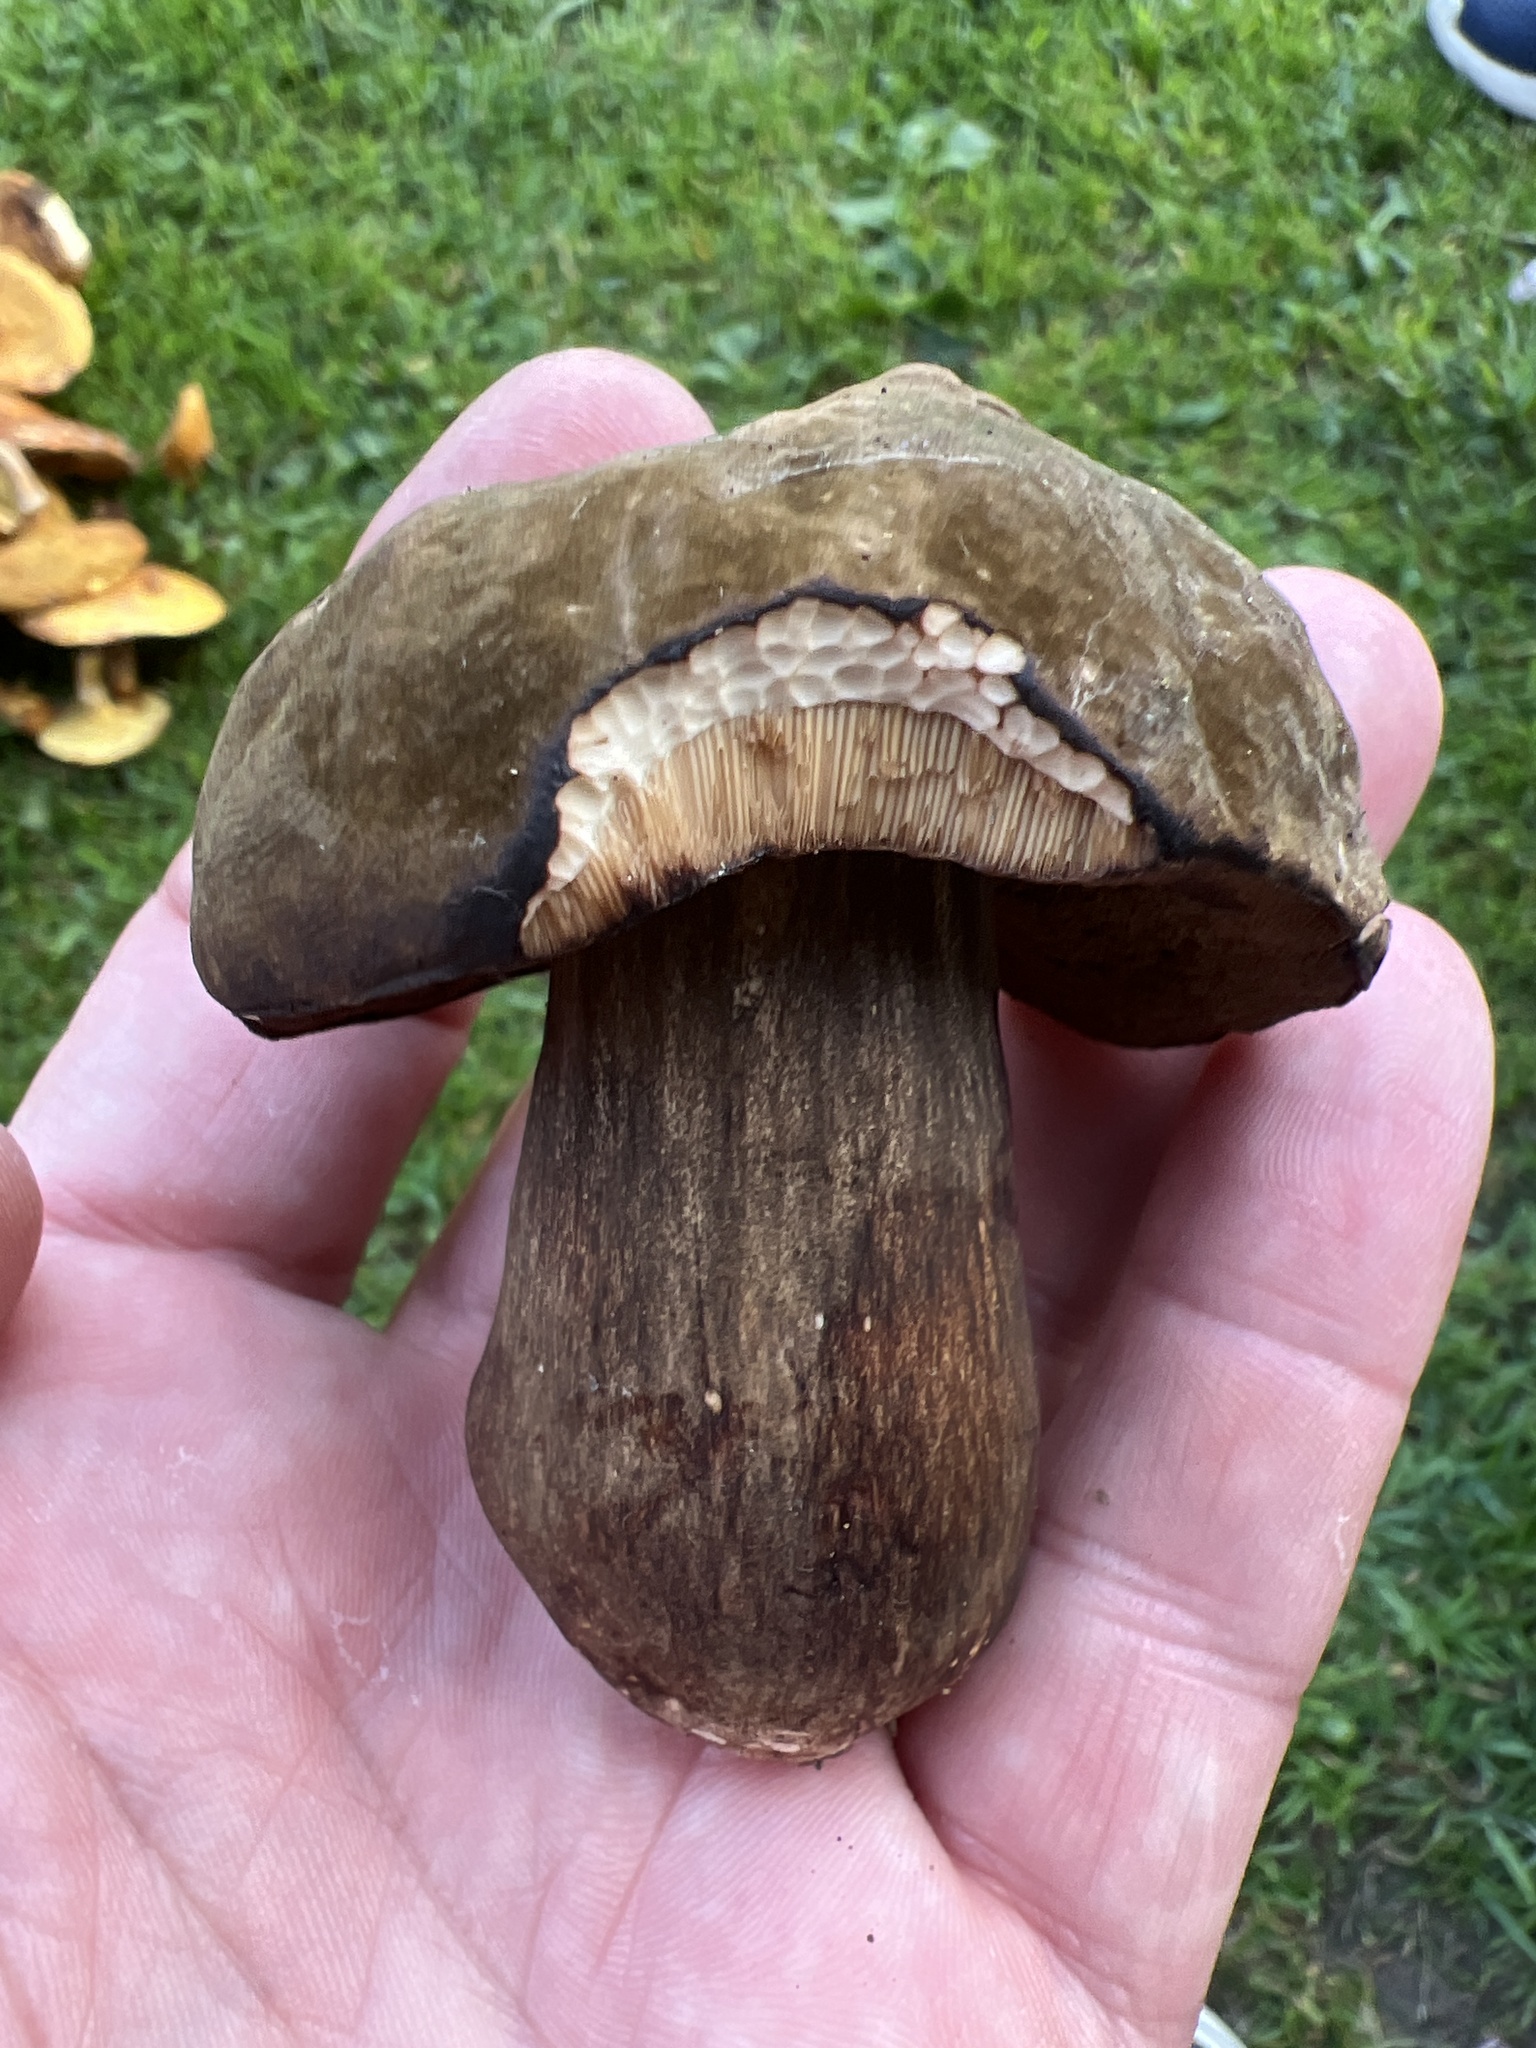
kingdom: Fungi
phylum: Basidiomycota
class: Agaricomycetes
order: Boletales
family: Boletaceae
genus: Porphyrellus
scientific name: Porphyrellus porphyrosporus
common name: Dusky bolete
